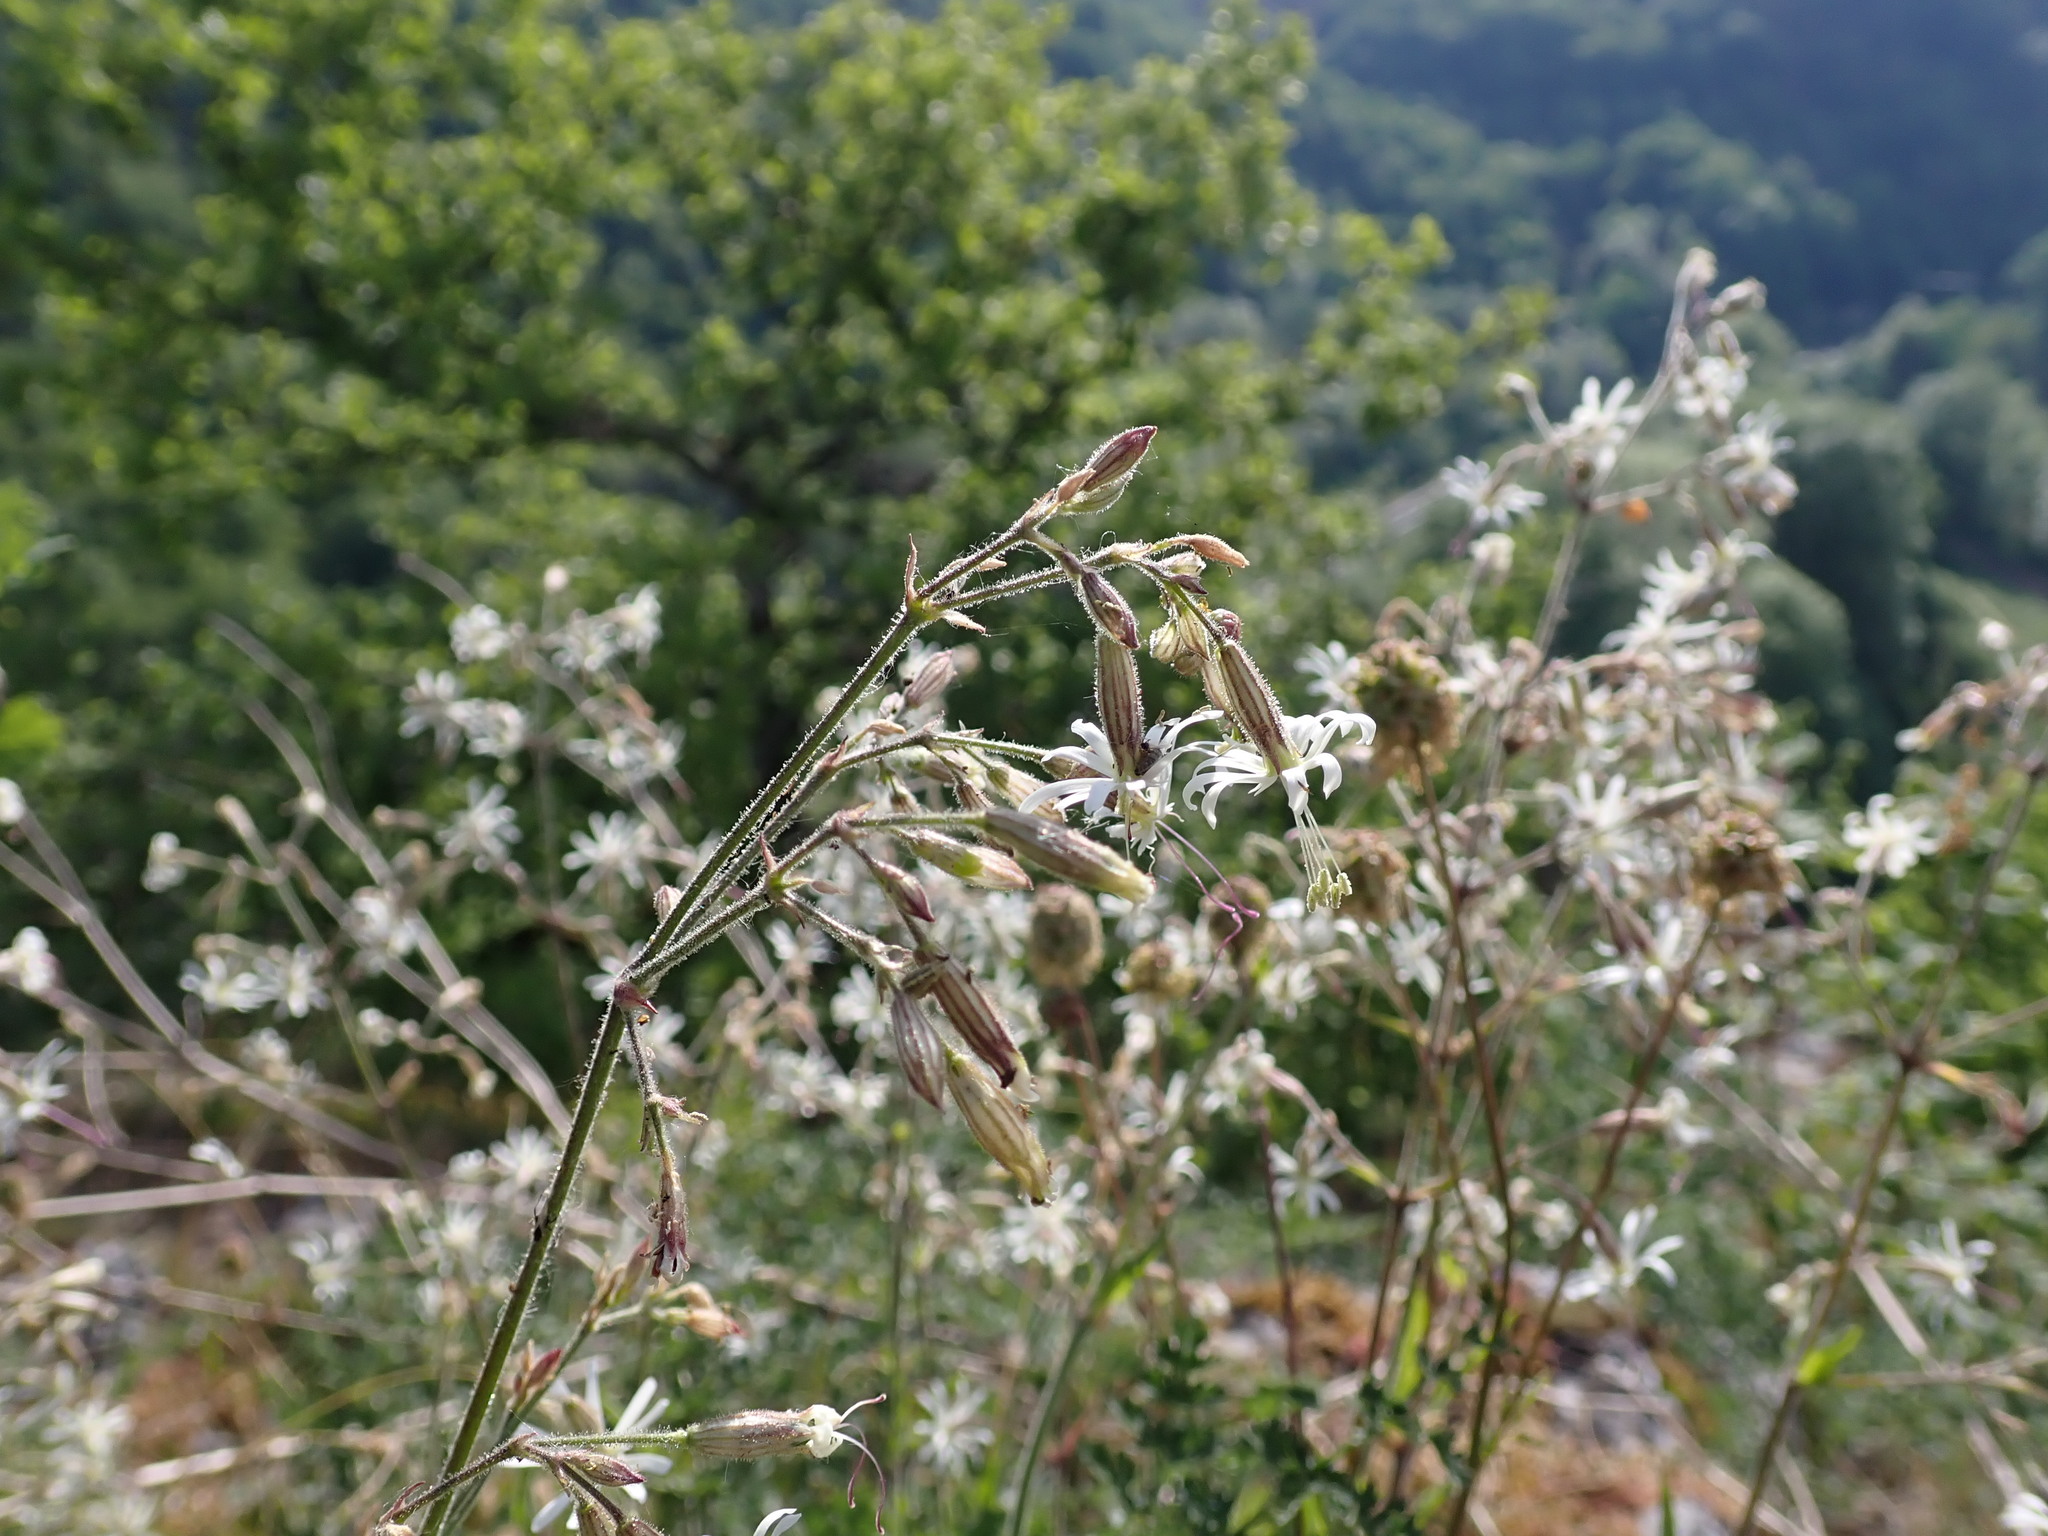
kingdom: Plantae
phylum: Tracheophyta
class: Magnoliopsida
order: Caryophyllales
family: Caryophyllaceae
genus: Silene
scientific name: Silene nutans
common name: Nottingham catchfly
